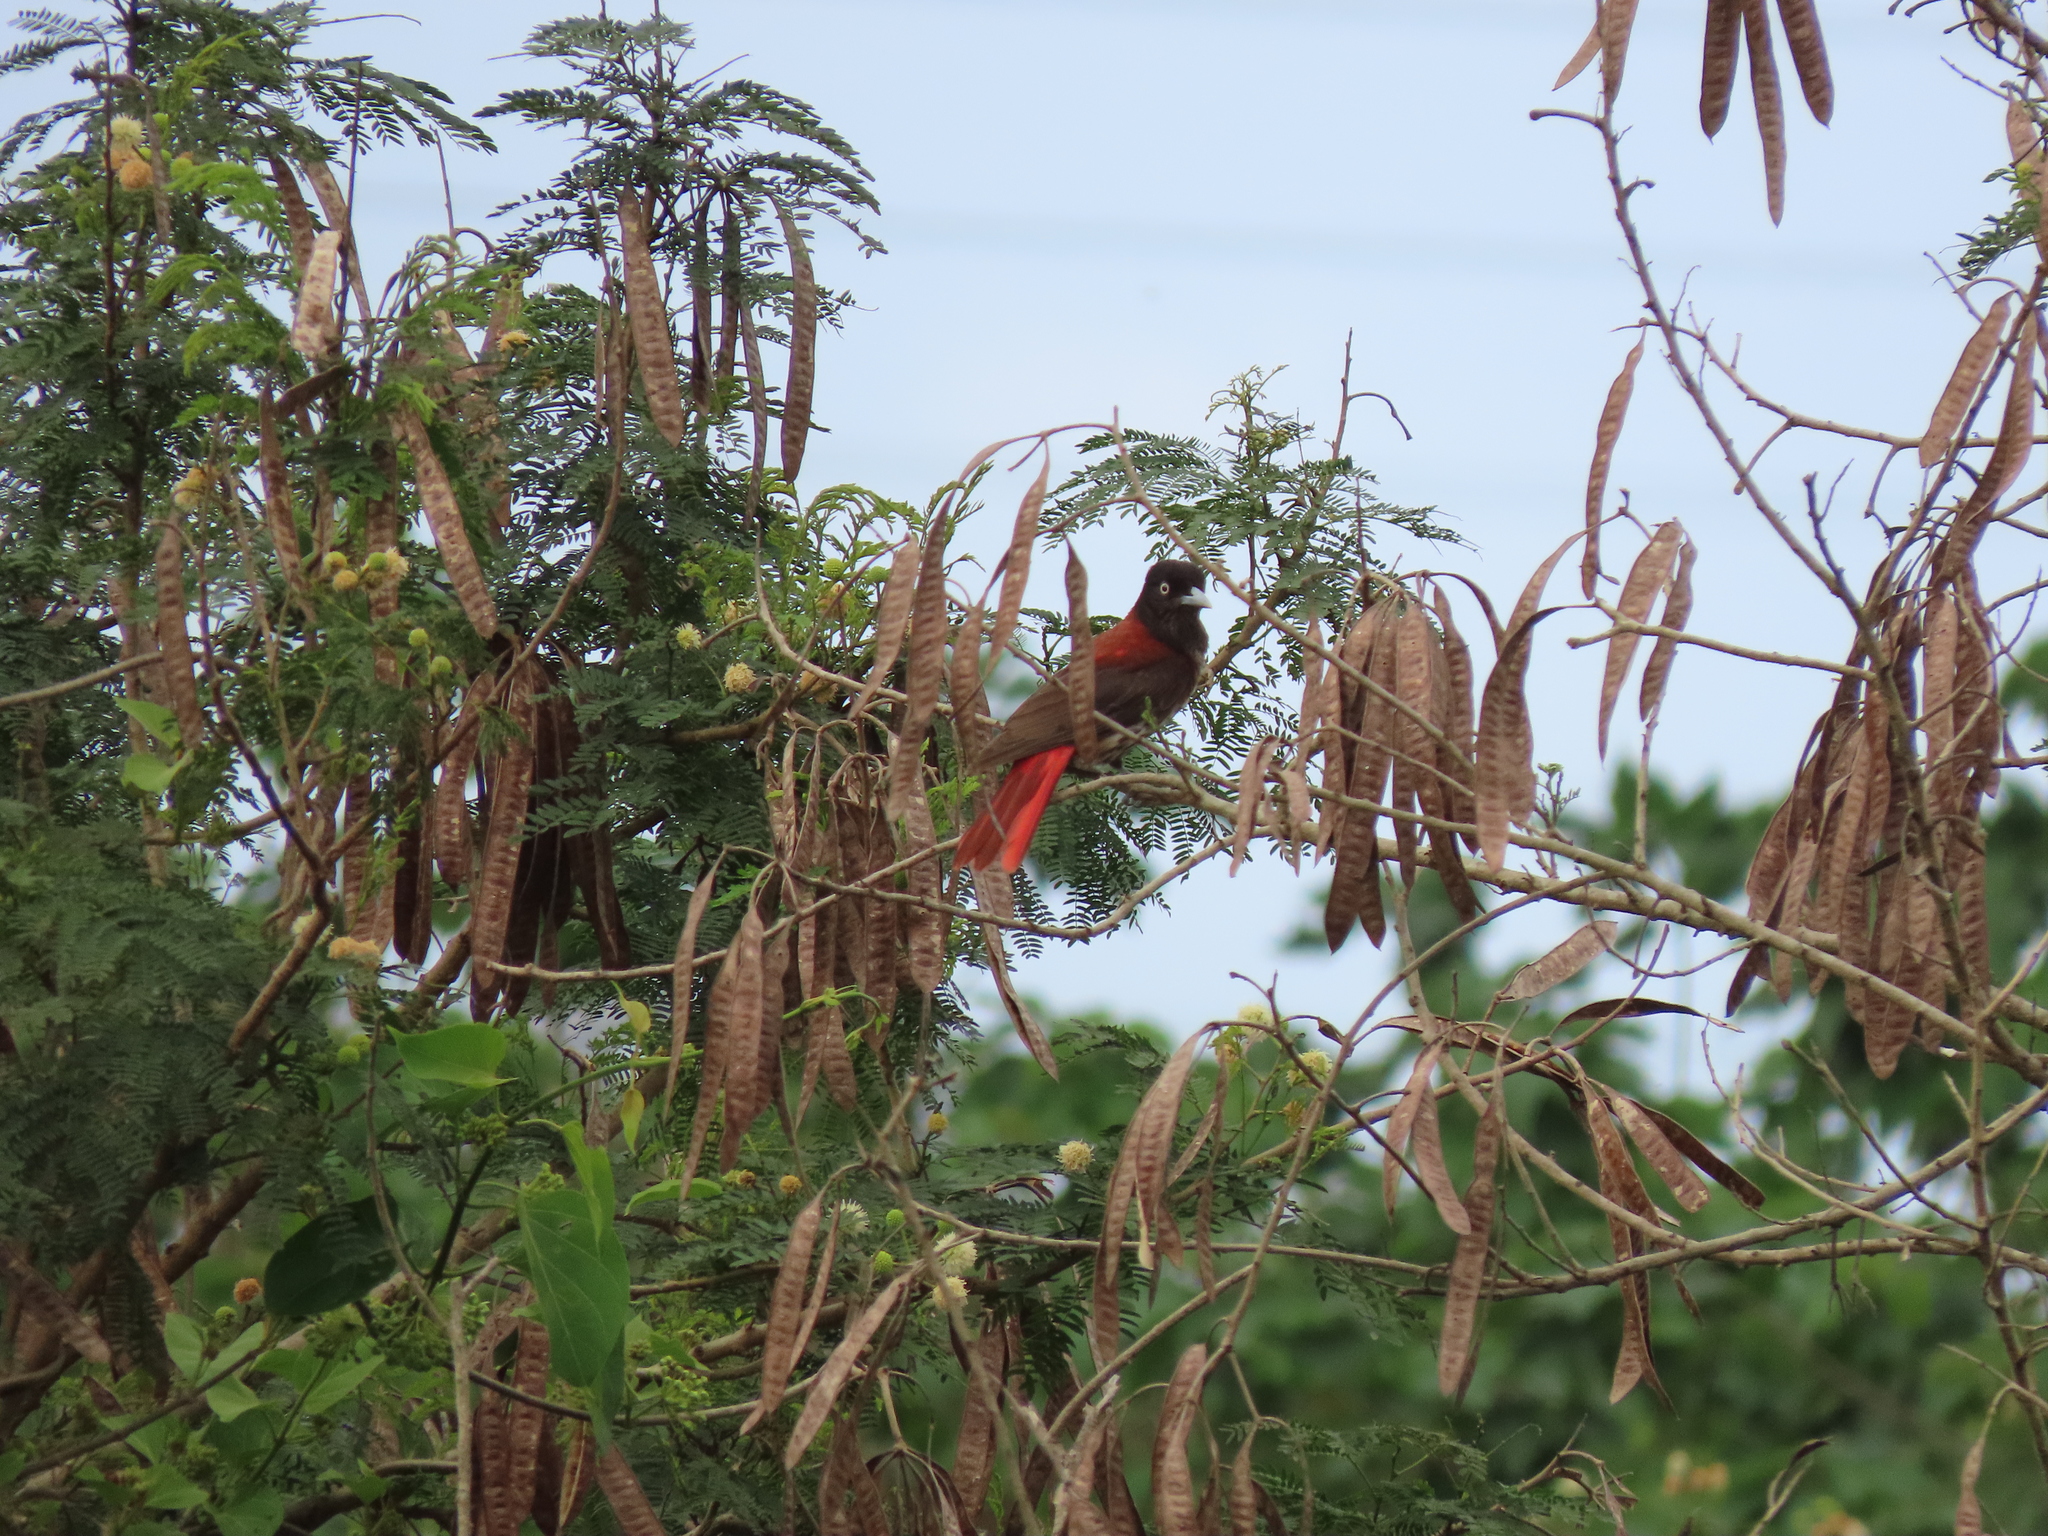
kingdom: Animalia
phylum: Chordata
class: Aves
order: Passeriformes
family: Oriolidae
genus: Oriolus
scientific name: Oriolus traillii
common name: Maroon oriole
